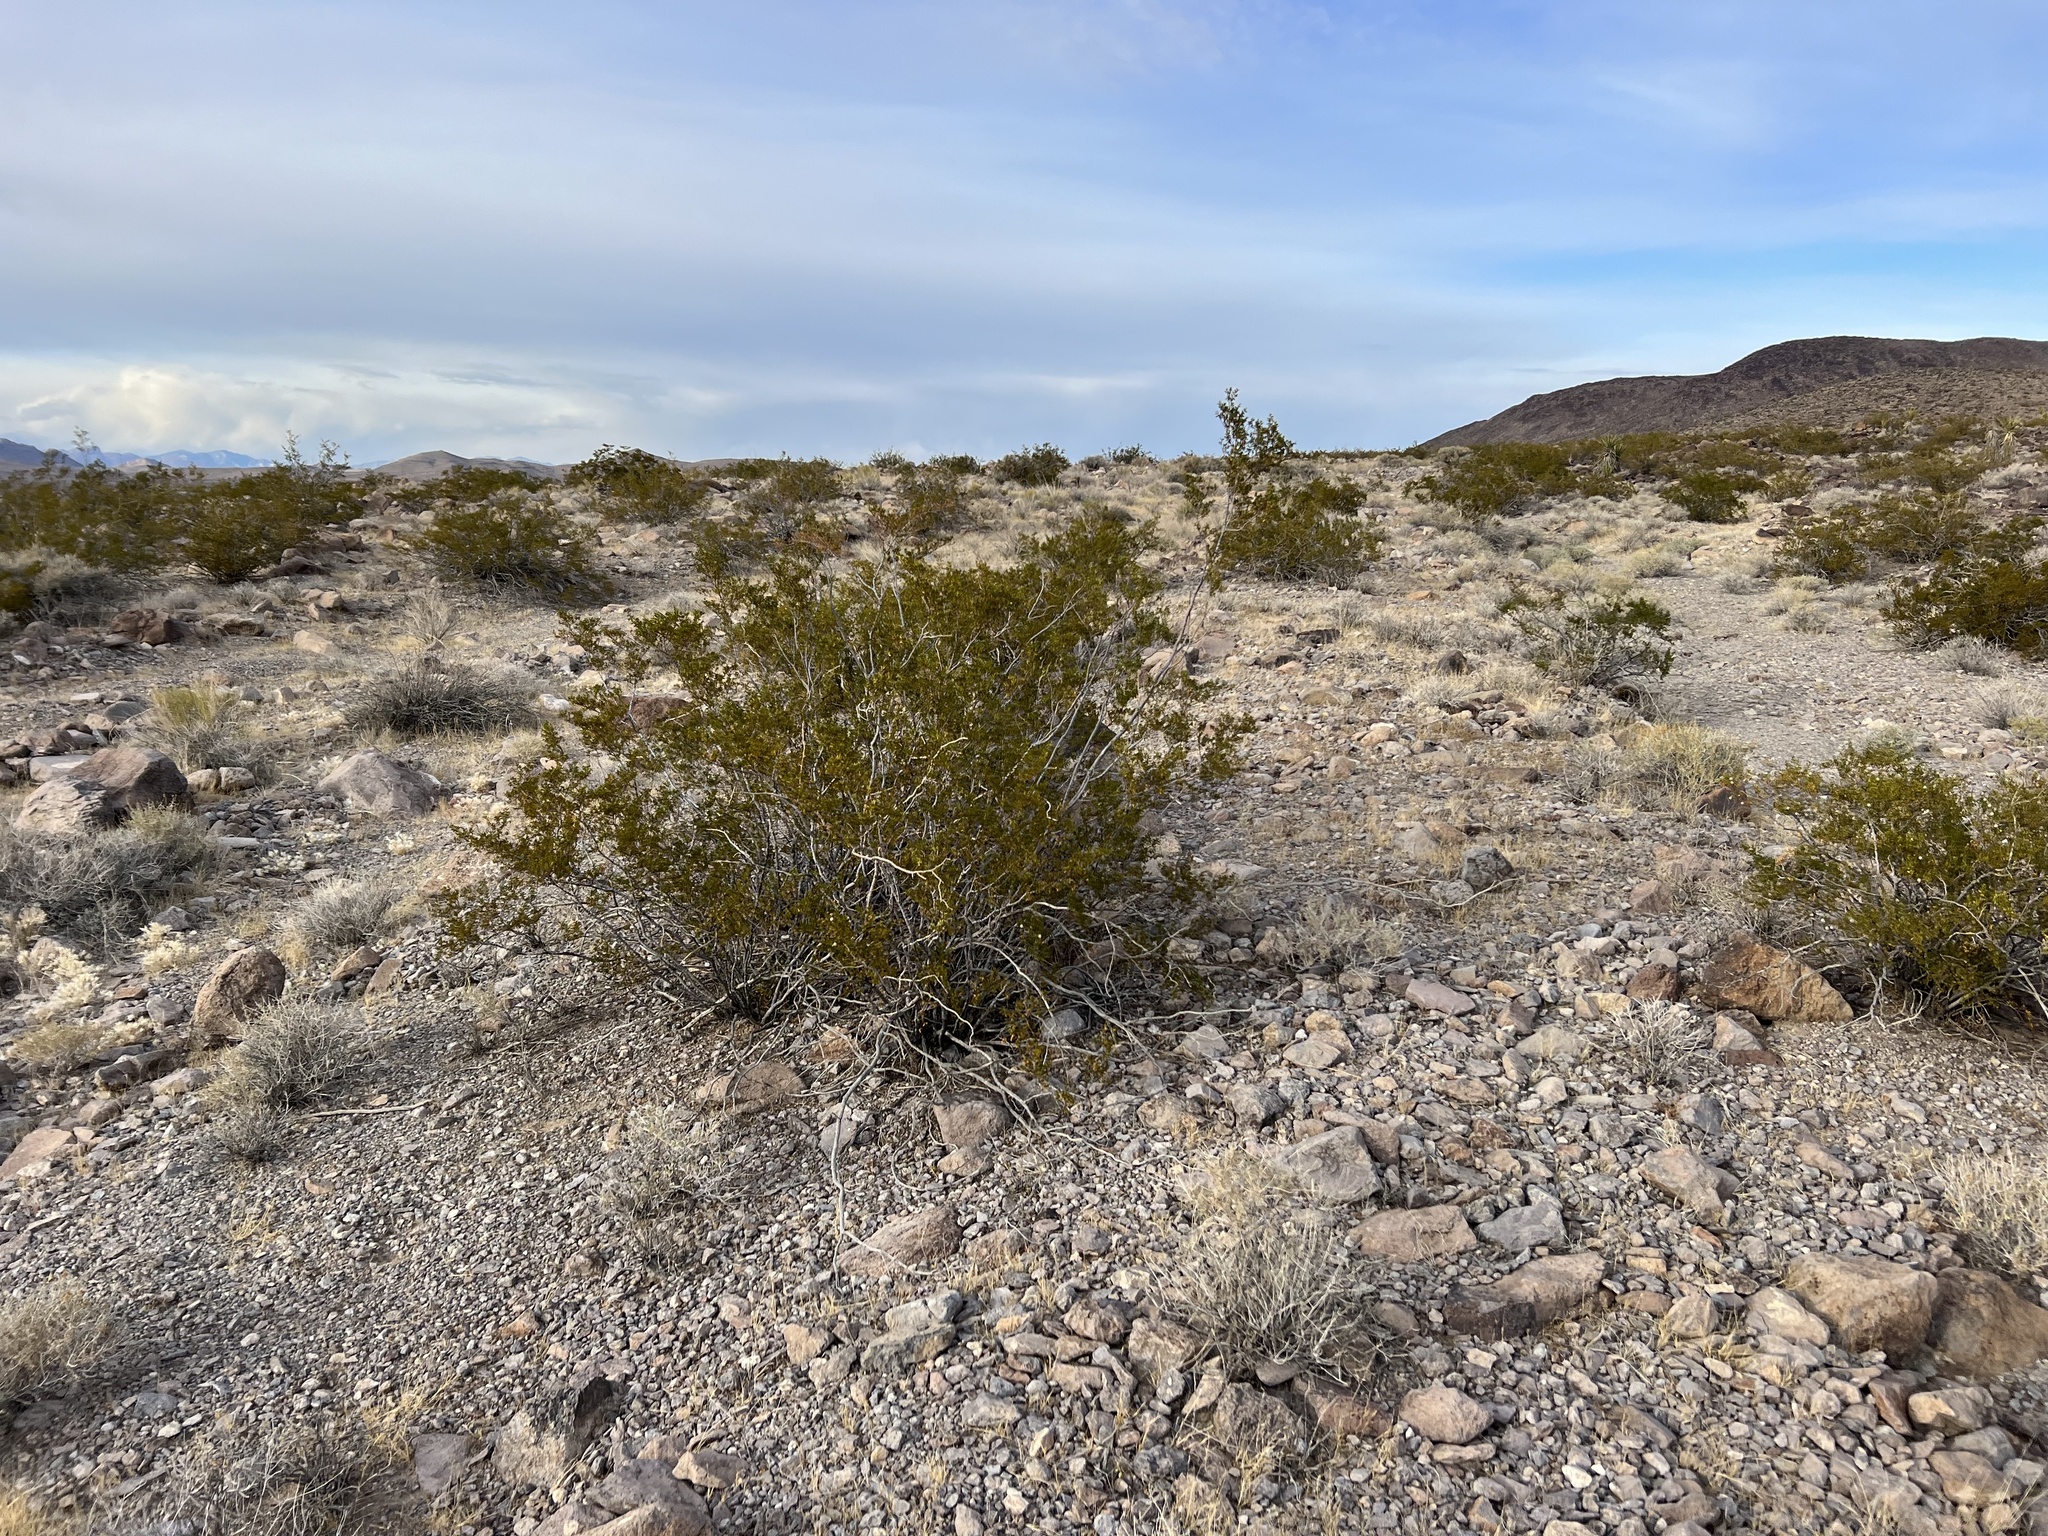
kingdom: Plantae
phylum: Tracheophyta
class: Magnoliopsida
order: Zygophyllales
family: Zygophyllaceae
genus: Larrea
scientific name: Larrea tridentata
